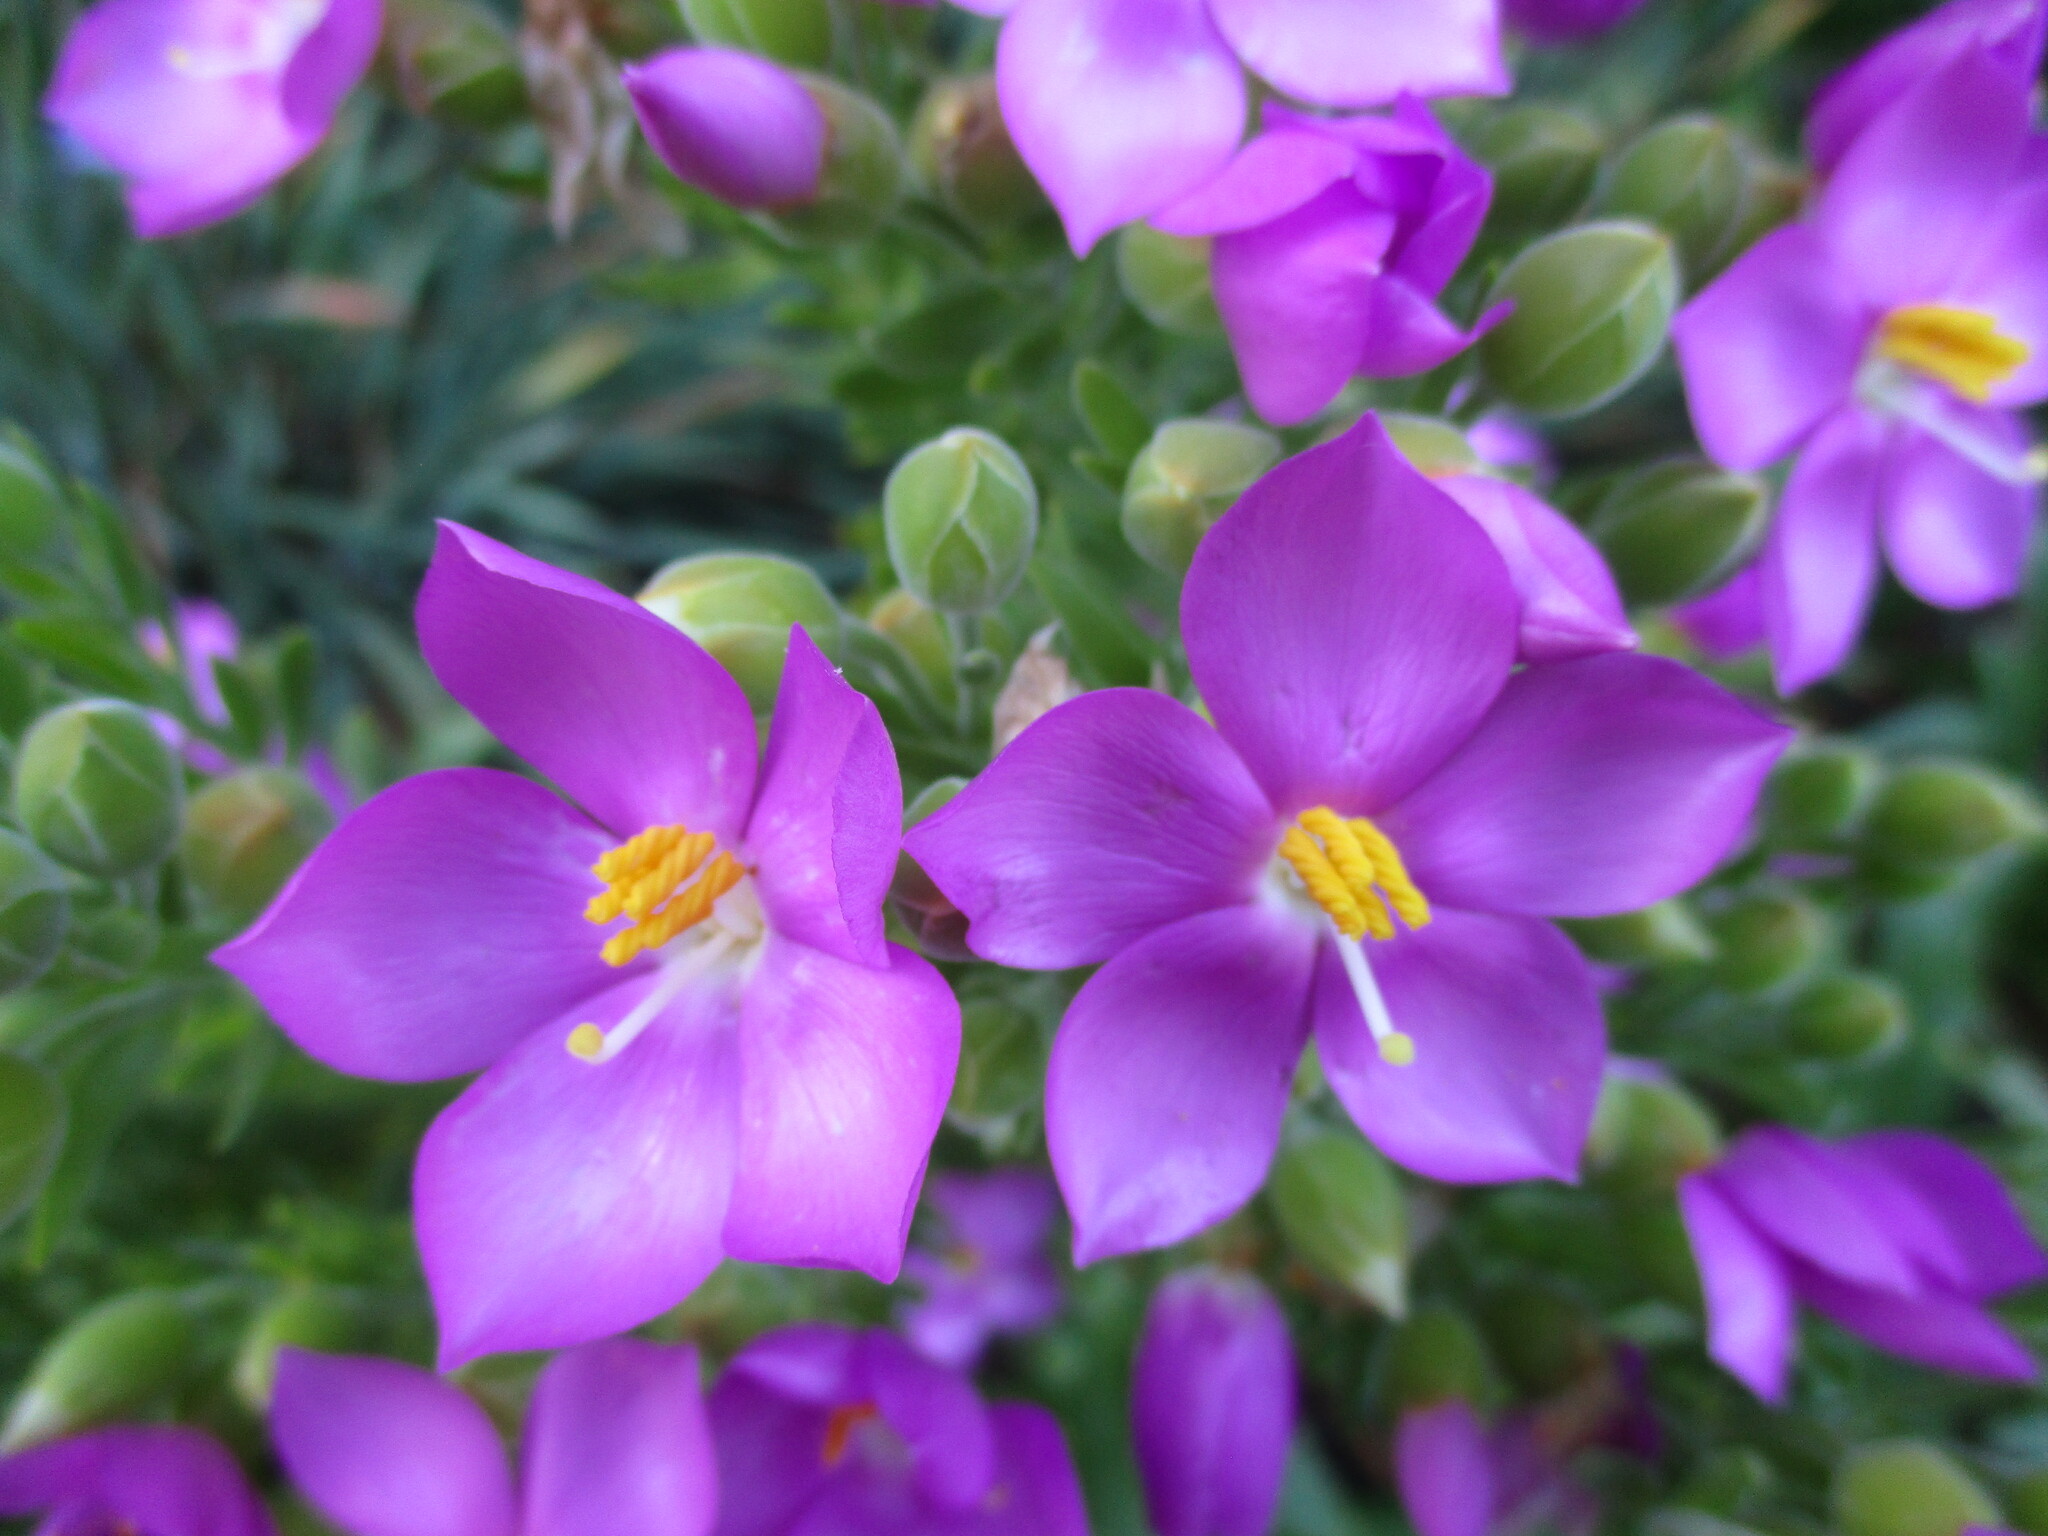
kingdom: Plantae
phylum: Tracheophyta
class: Magnoliopsida
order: Gentianales
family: Gentianaceae
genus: Orphium
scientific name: Orphium frutescens
